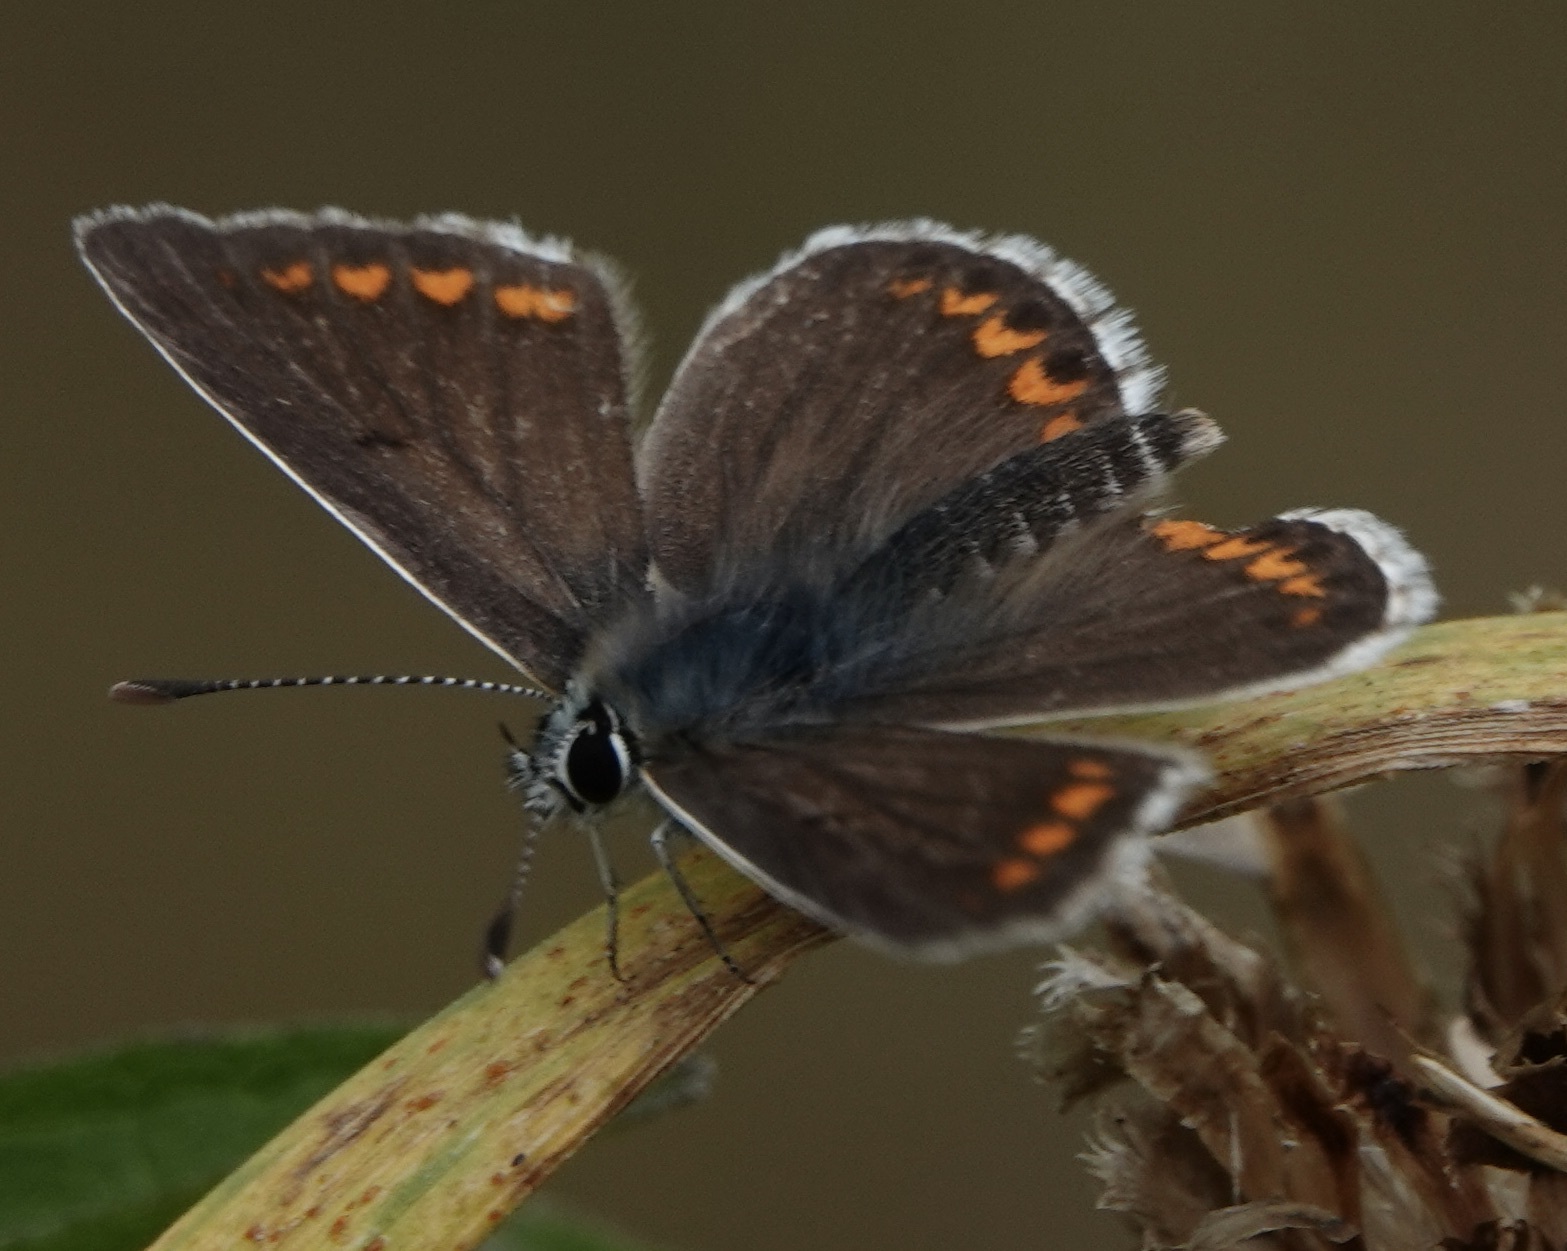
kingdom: Animalia
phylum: Arthropoda
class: Insecta
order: Lepidoptera
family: Lycaenidae
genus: Aricia
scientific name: Aricia agestis
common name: Brown argus
